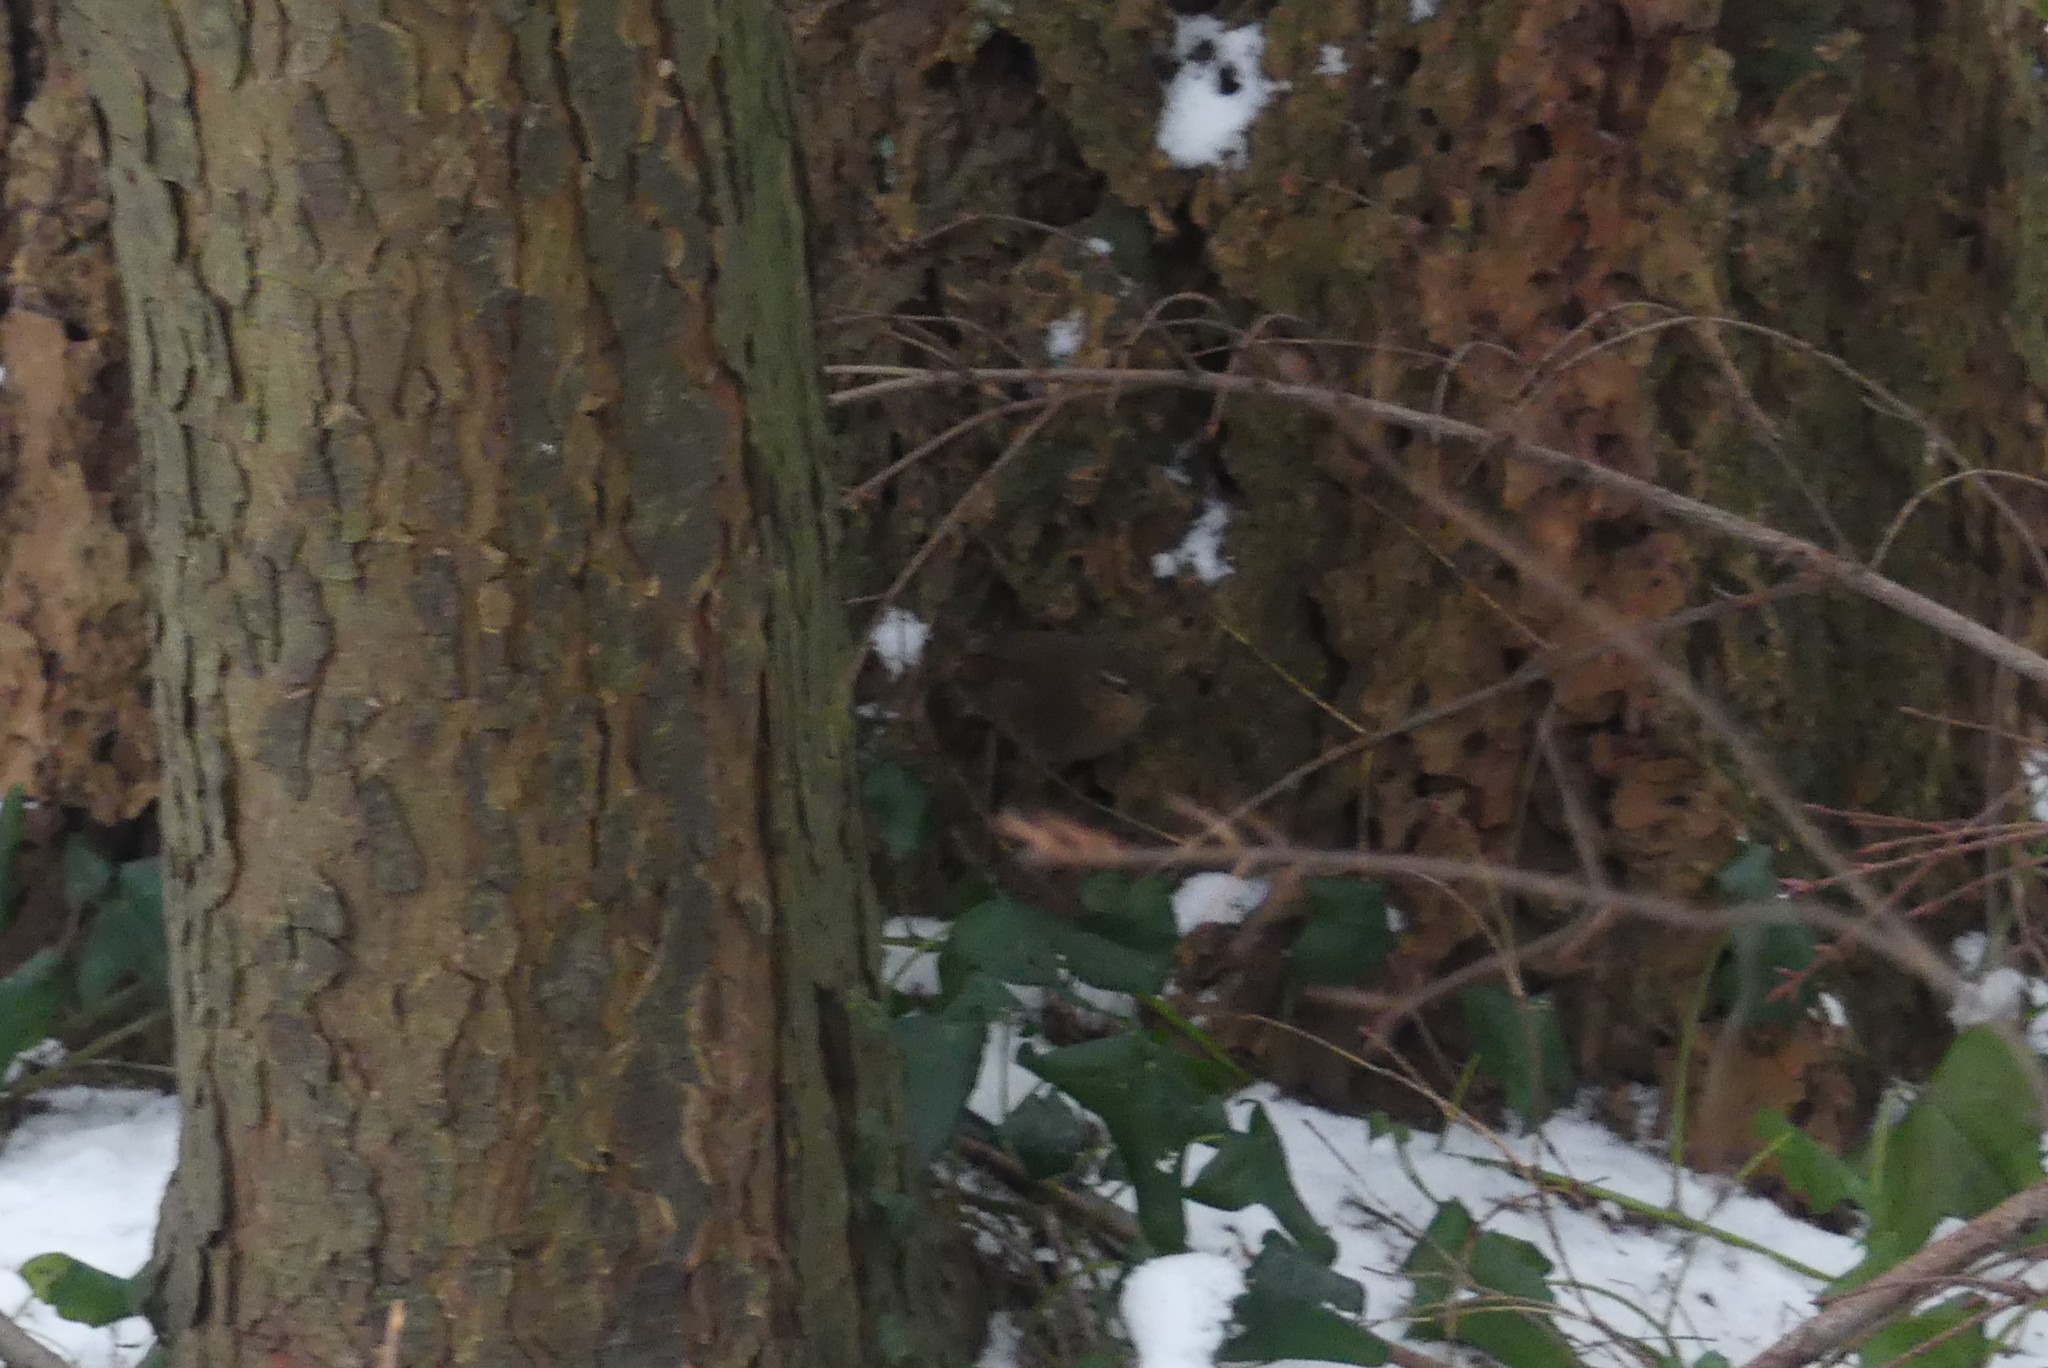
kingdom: Animalia
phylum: Chordata
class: Aves
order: Passeriformes
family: Troglodytidae
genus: Troglodytes
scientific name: Troglodytes pacificus
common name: Pacific wren
